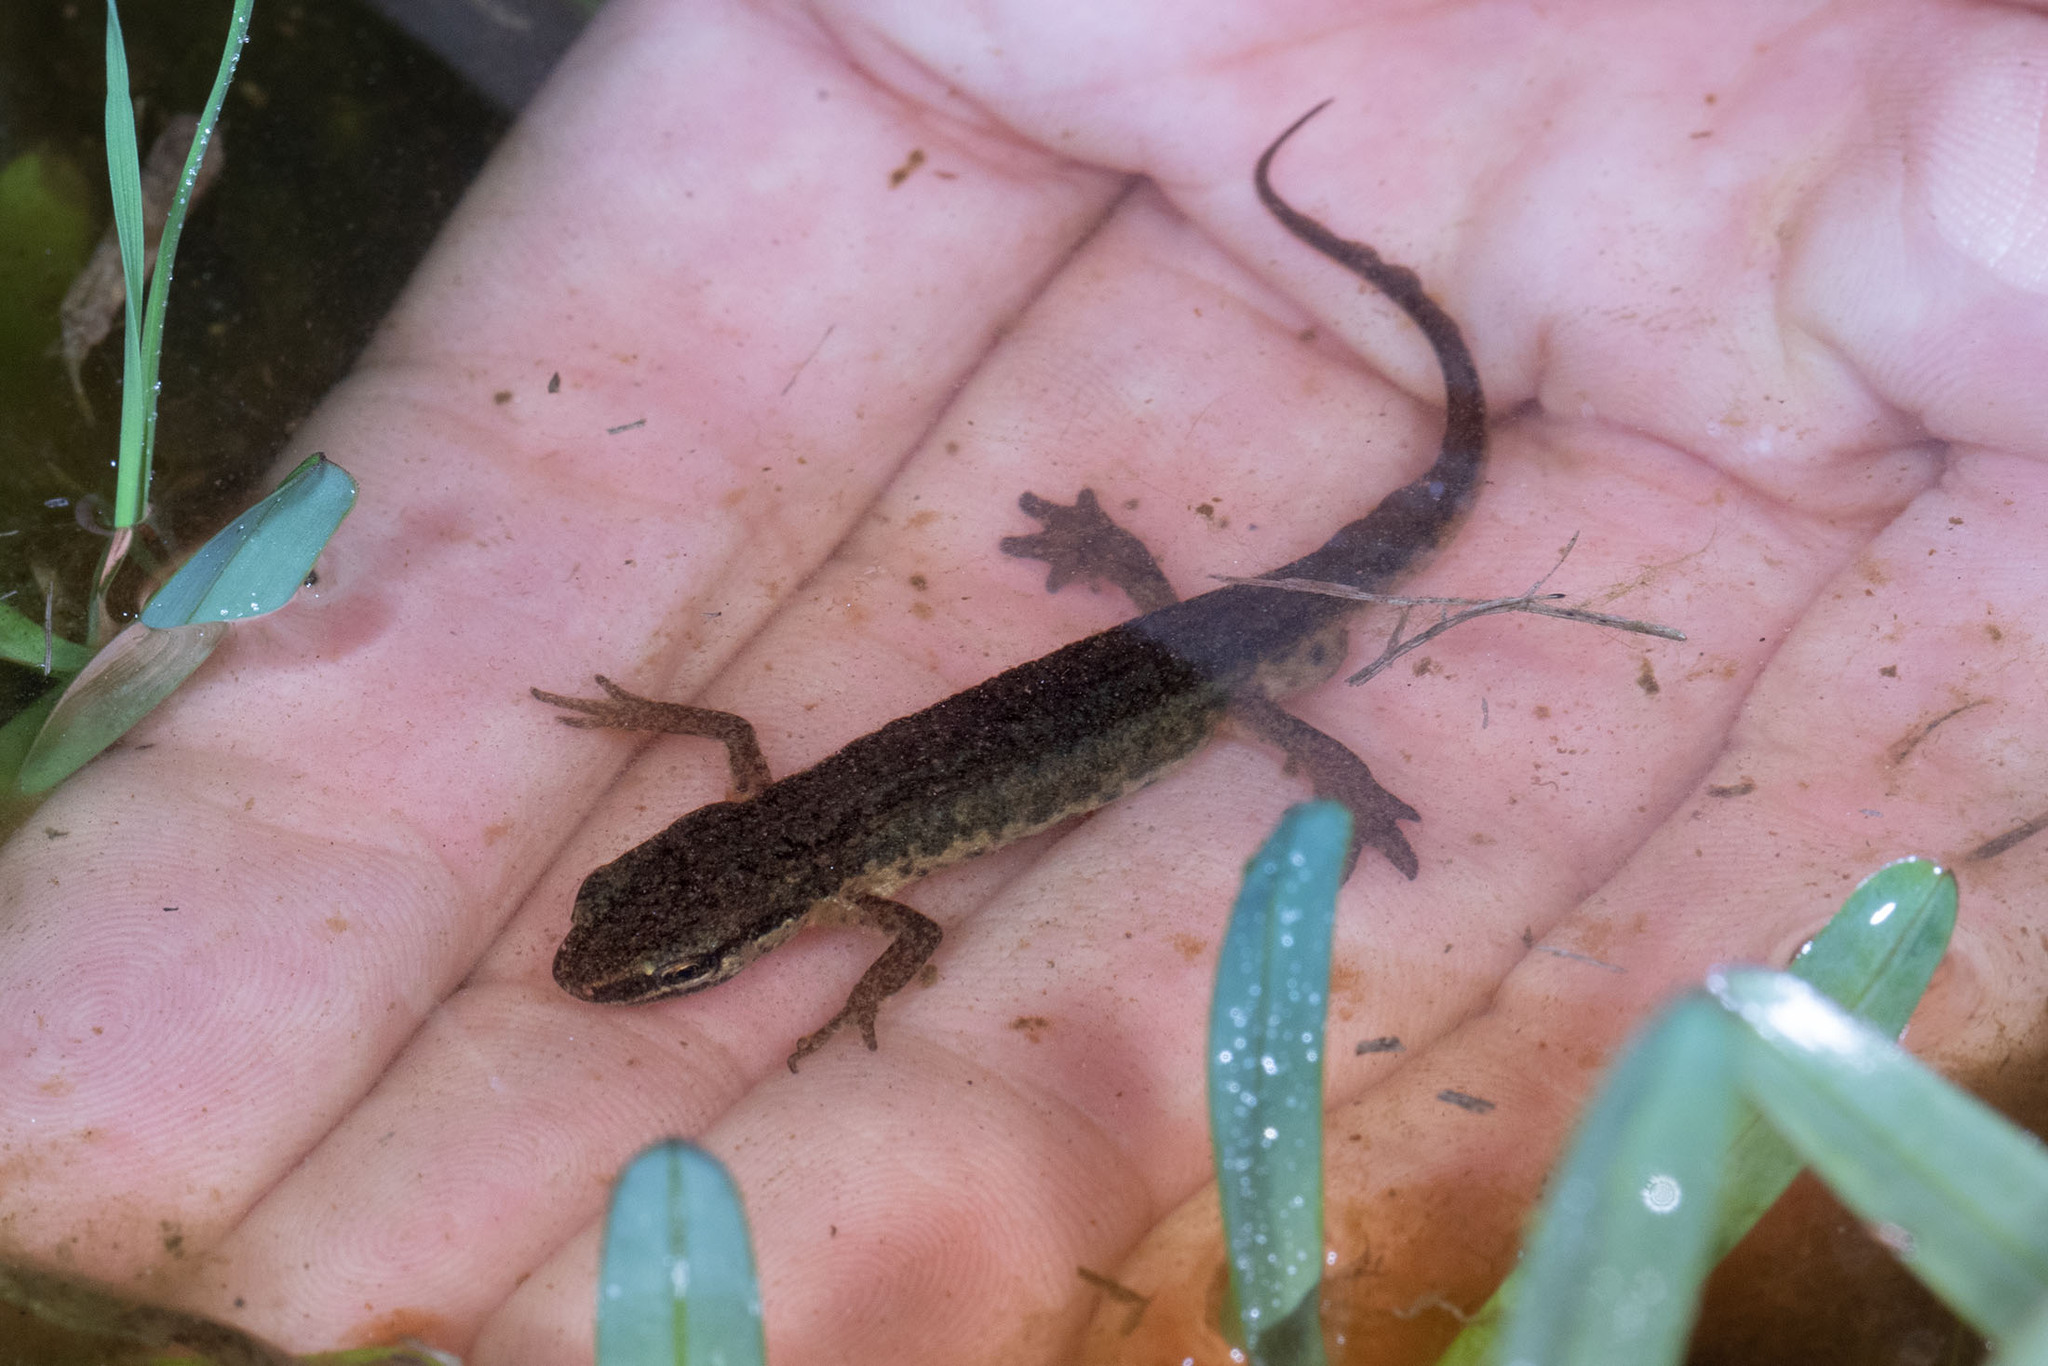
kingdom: Animalia
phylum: Chordata
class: Amphibia
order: Caudata
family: Salamandridae
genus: Lissotriton
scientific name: Lissotriton helveticus
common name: Palmate newt
